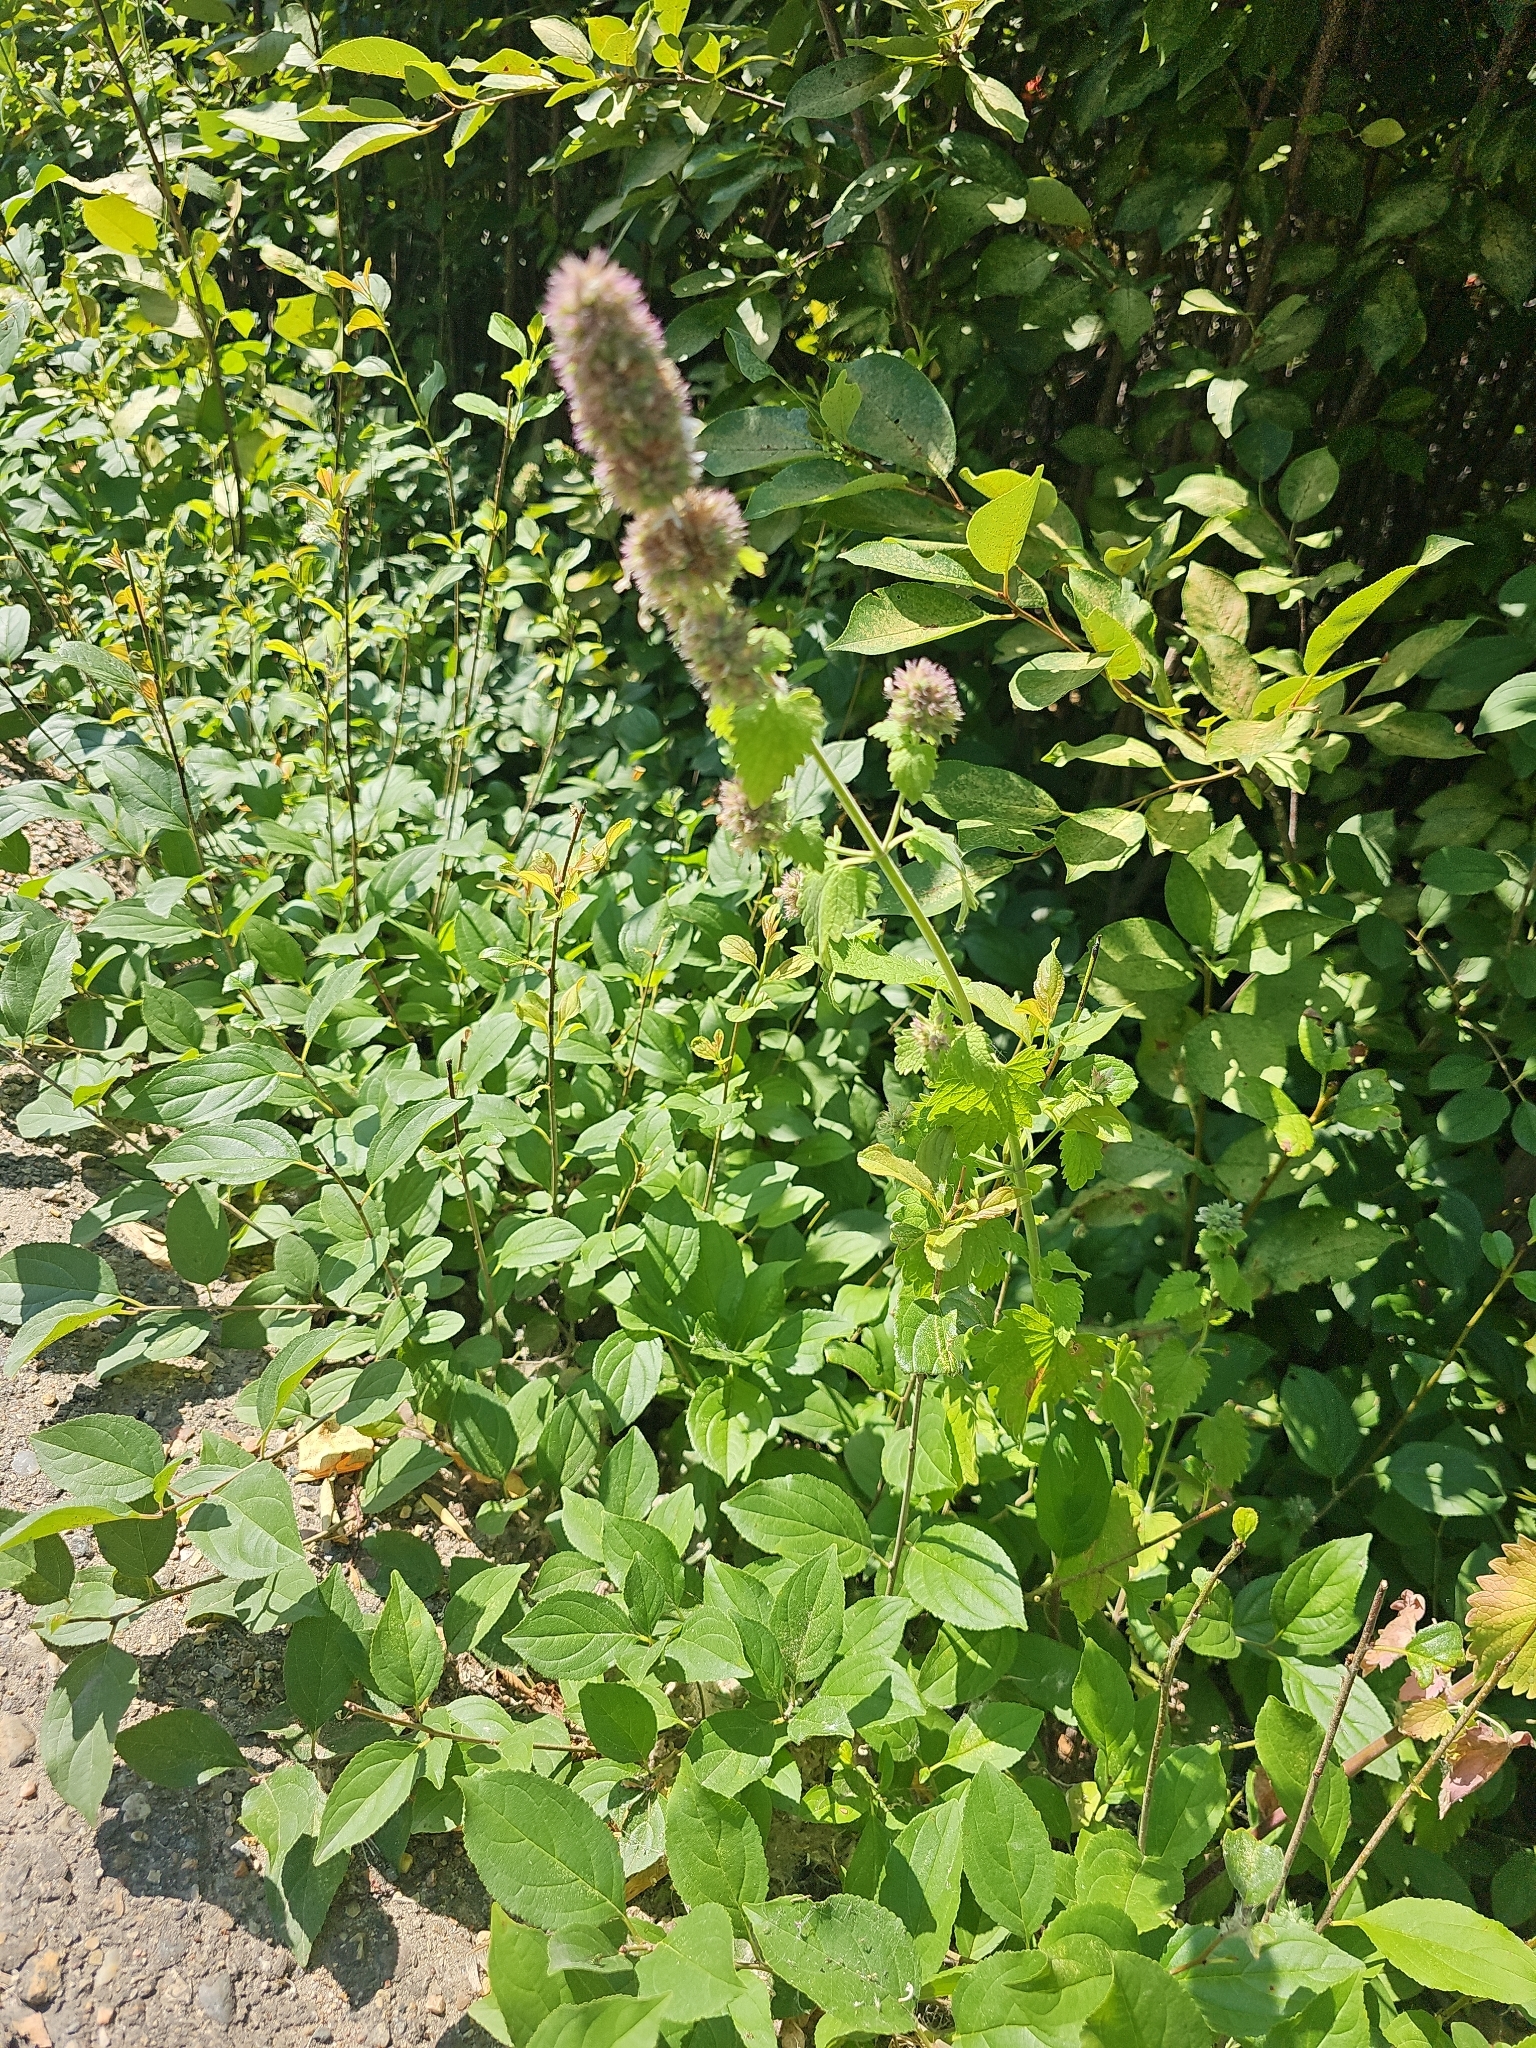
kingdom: Plantae
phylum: Tracheophyta
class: Magnoliopsida
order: Lamiales
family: Lamiaceae
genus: Nepeta
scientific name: Nepeta cataria
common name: Catnip
